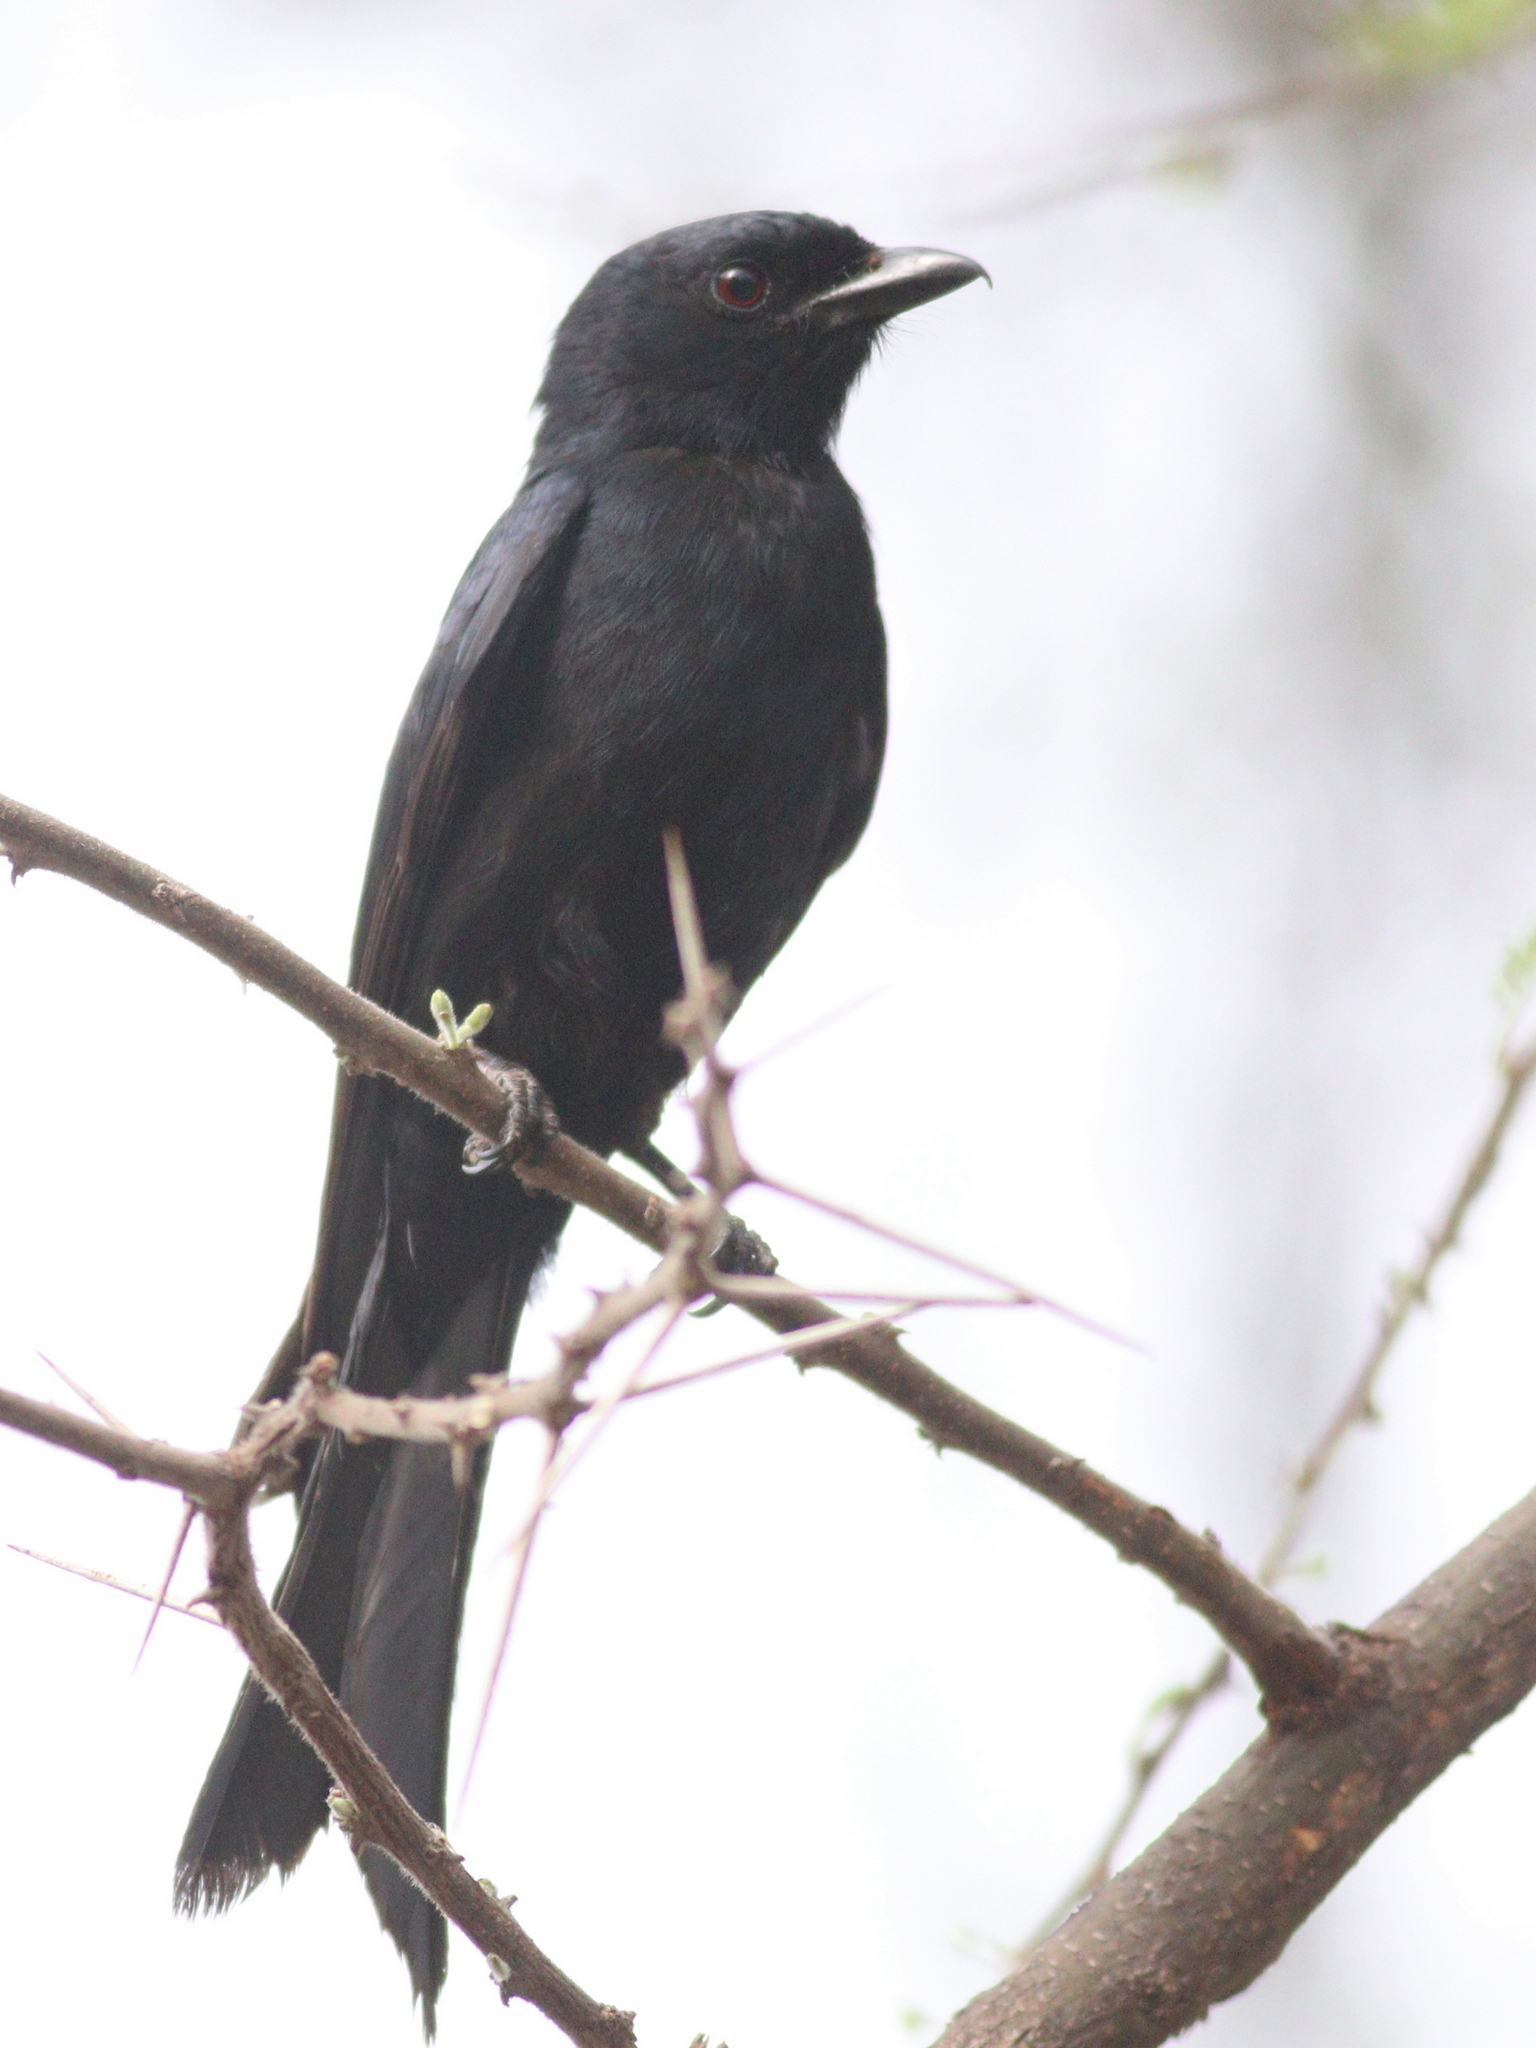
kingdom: Animalia
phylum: Chordata
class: Aves
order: Passeriformes
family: Dicruridae
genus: Dicrurus
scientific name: Dicrurus adsimilis
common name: Fork-tailed drongo
